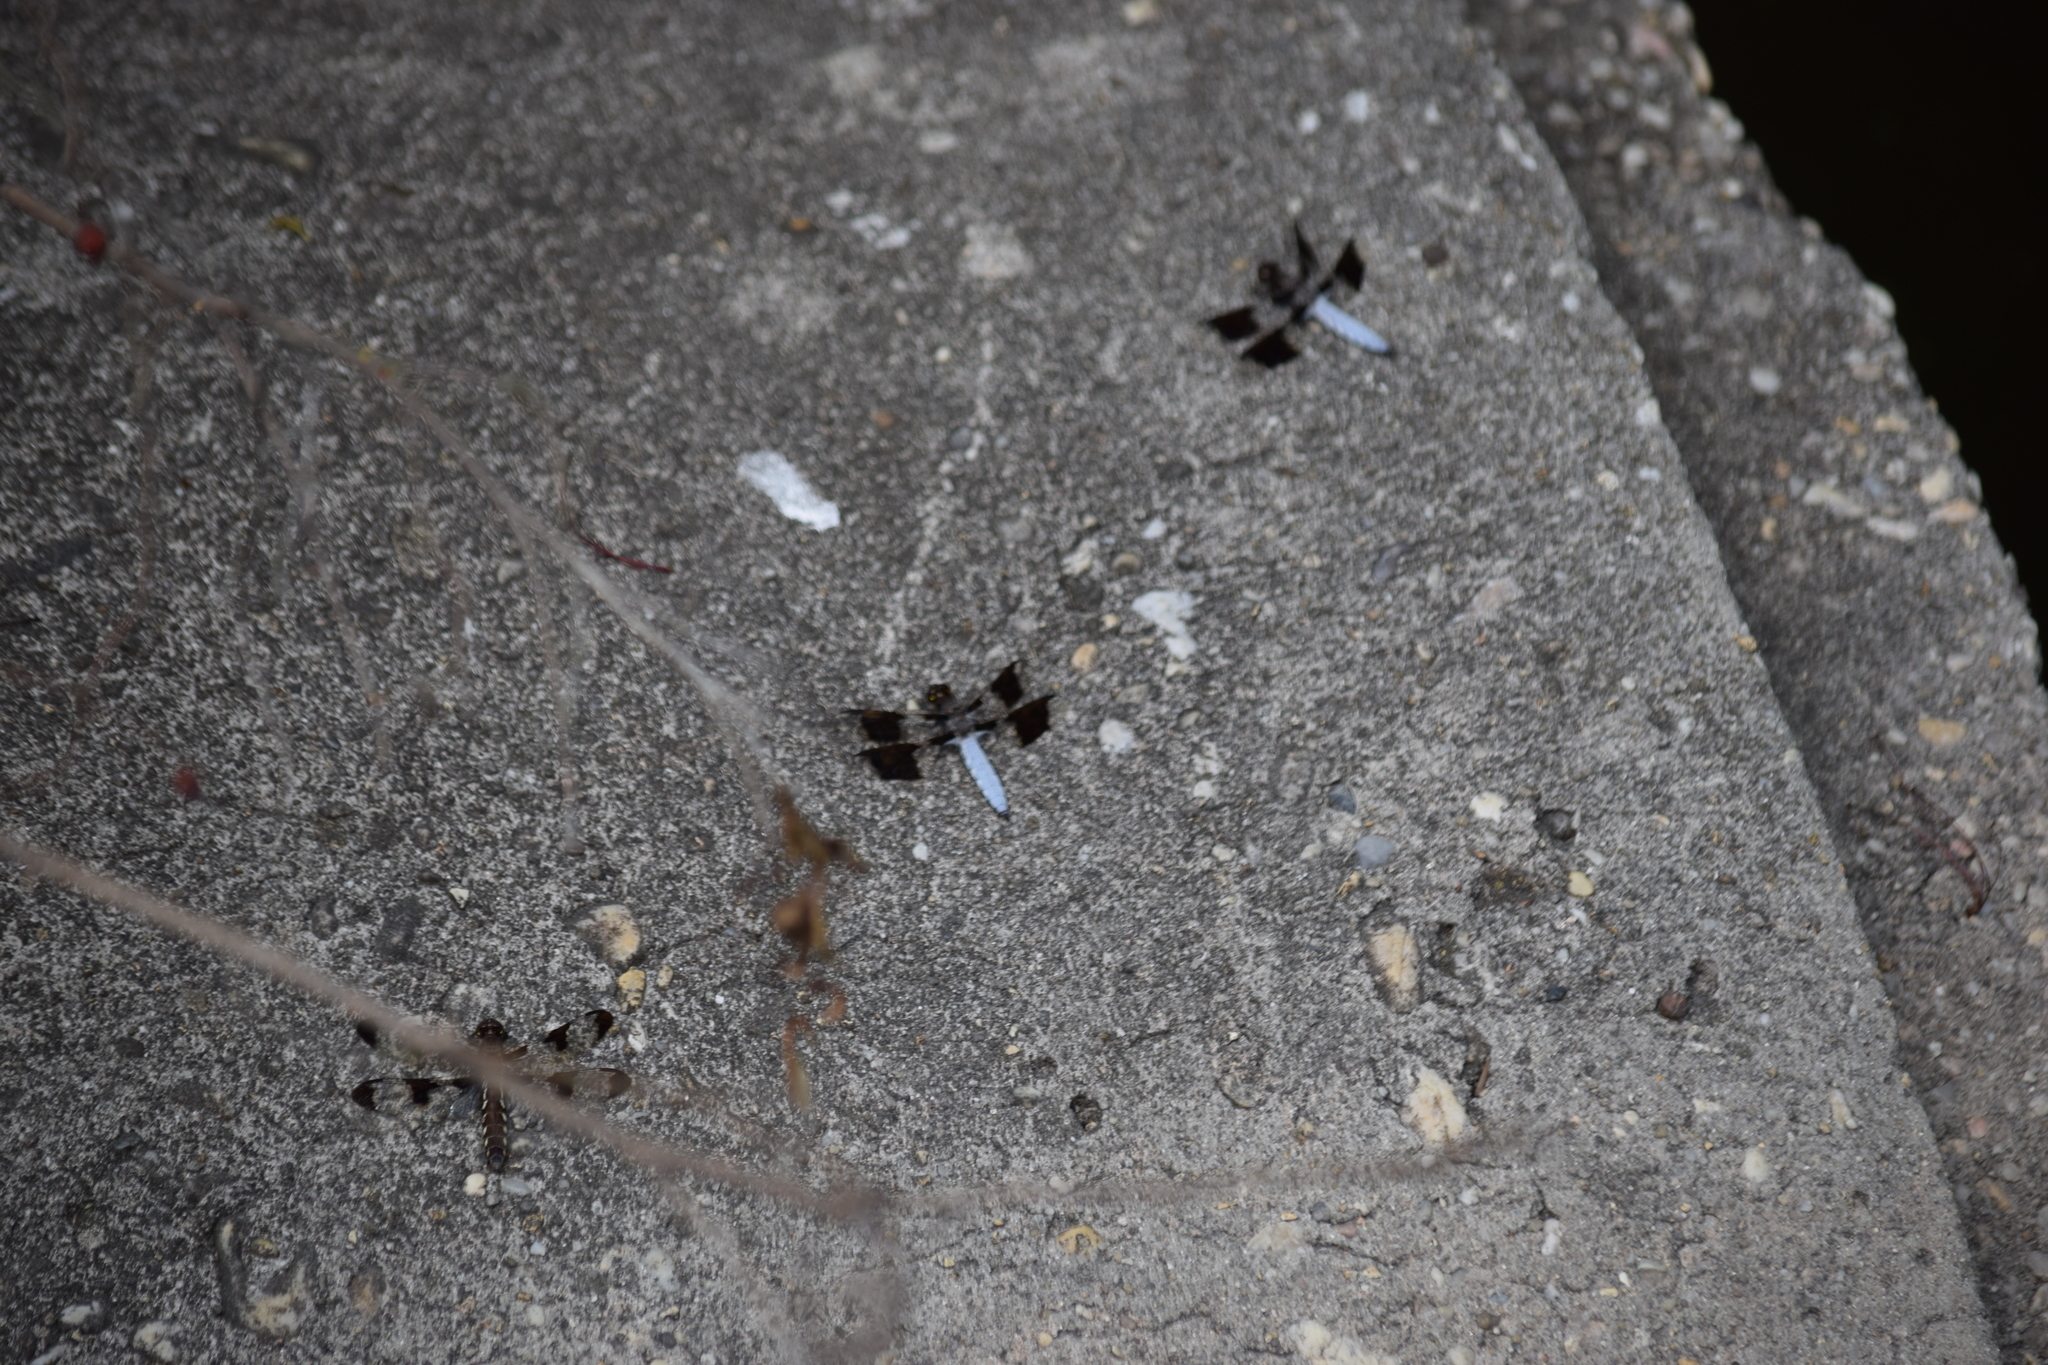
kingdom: Animalia
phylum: Arthropoda
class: Insecta
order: Odonata
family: Libellulidae
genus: Plathemis
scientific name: Plathemis lydia
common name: Common whitetail
